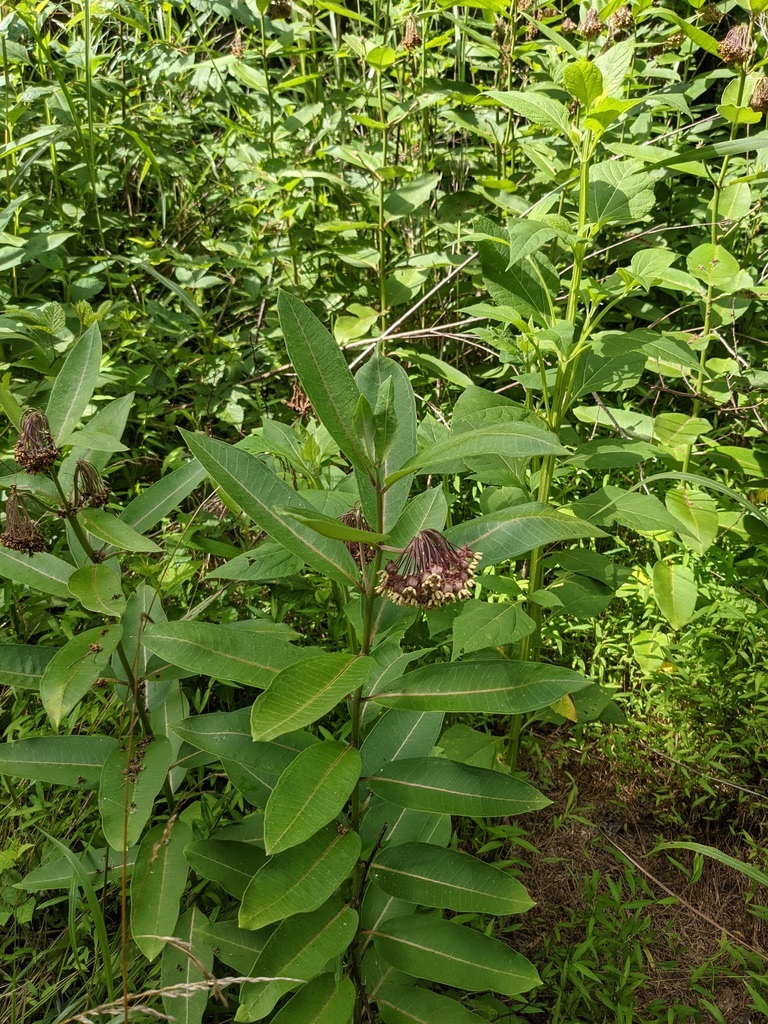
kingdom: Plantae
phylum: Tracheophyta
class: Magnoliopsida
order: Gentianales
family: Apocynaceae
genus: Asclepias
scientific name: Asclepias syriaca
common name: Common milkweed
